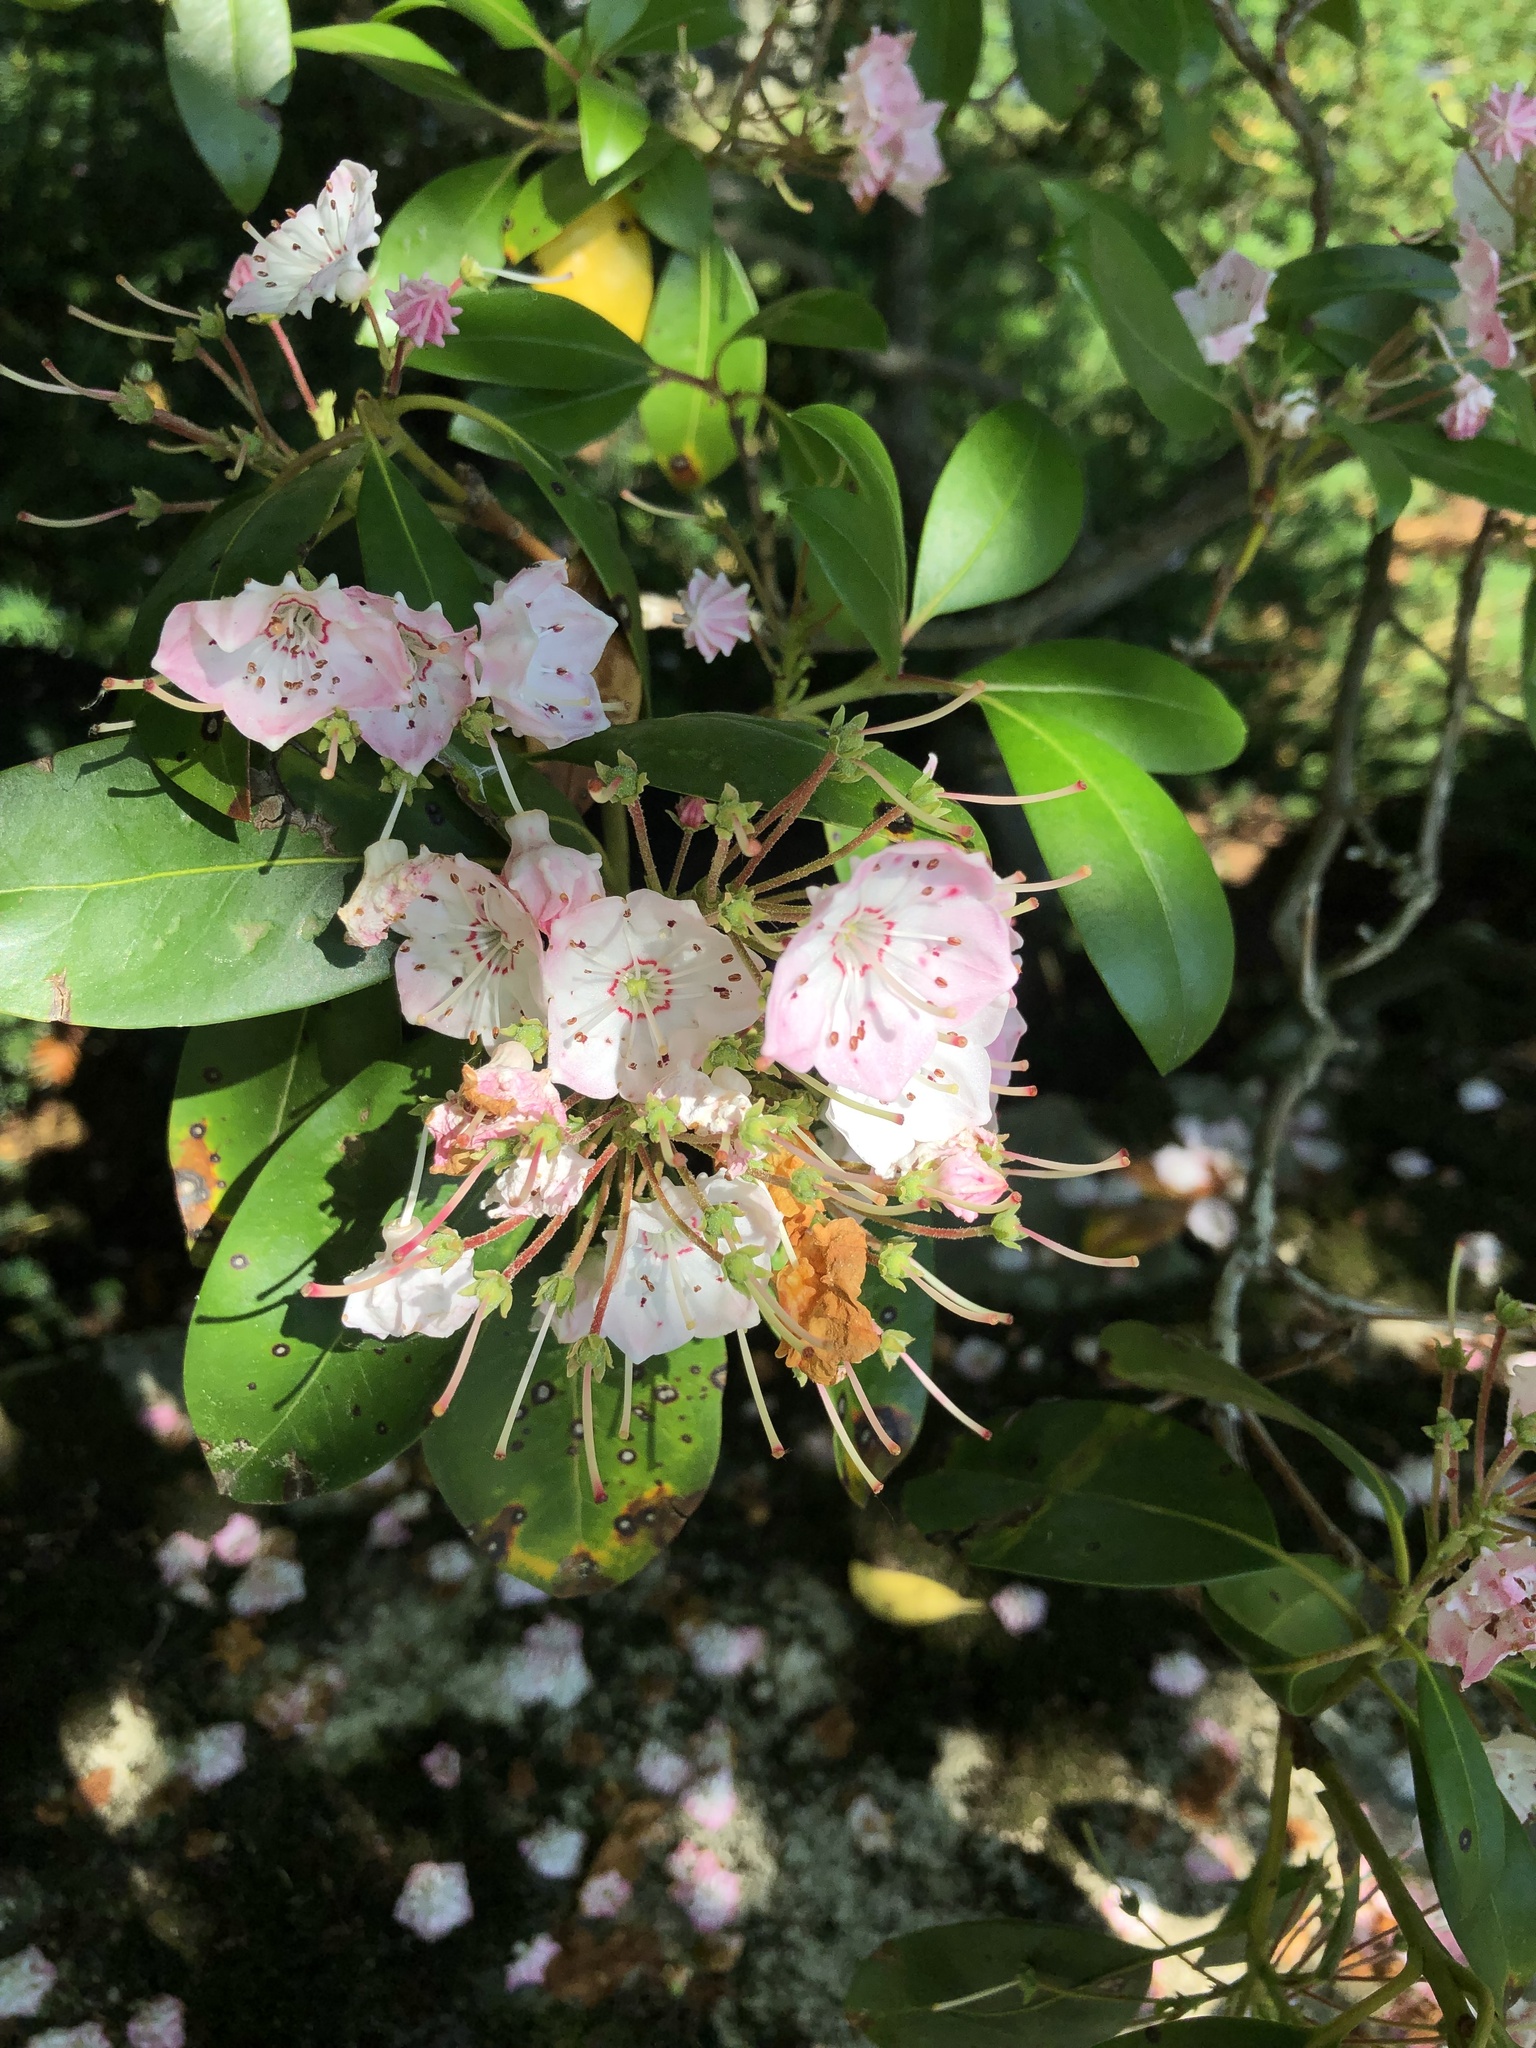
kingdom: Plantae
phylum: Tracheophyta
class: Magnoliopsida
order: Ericales
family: Ericaceae
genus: Kalmia
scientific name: Kalmia latifolia
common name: Mountain-laurel
